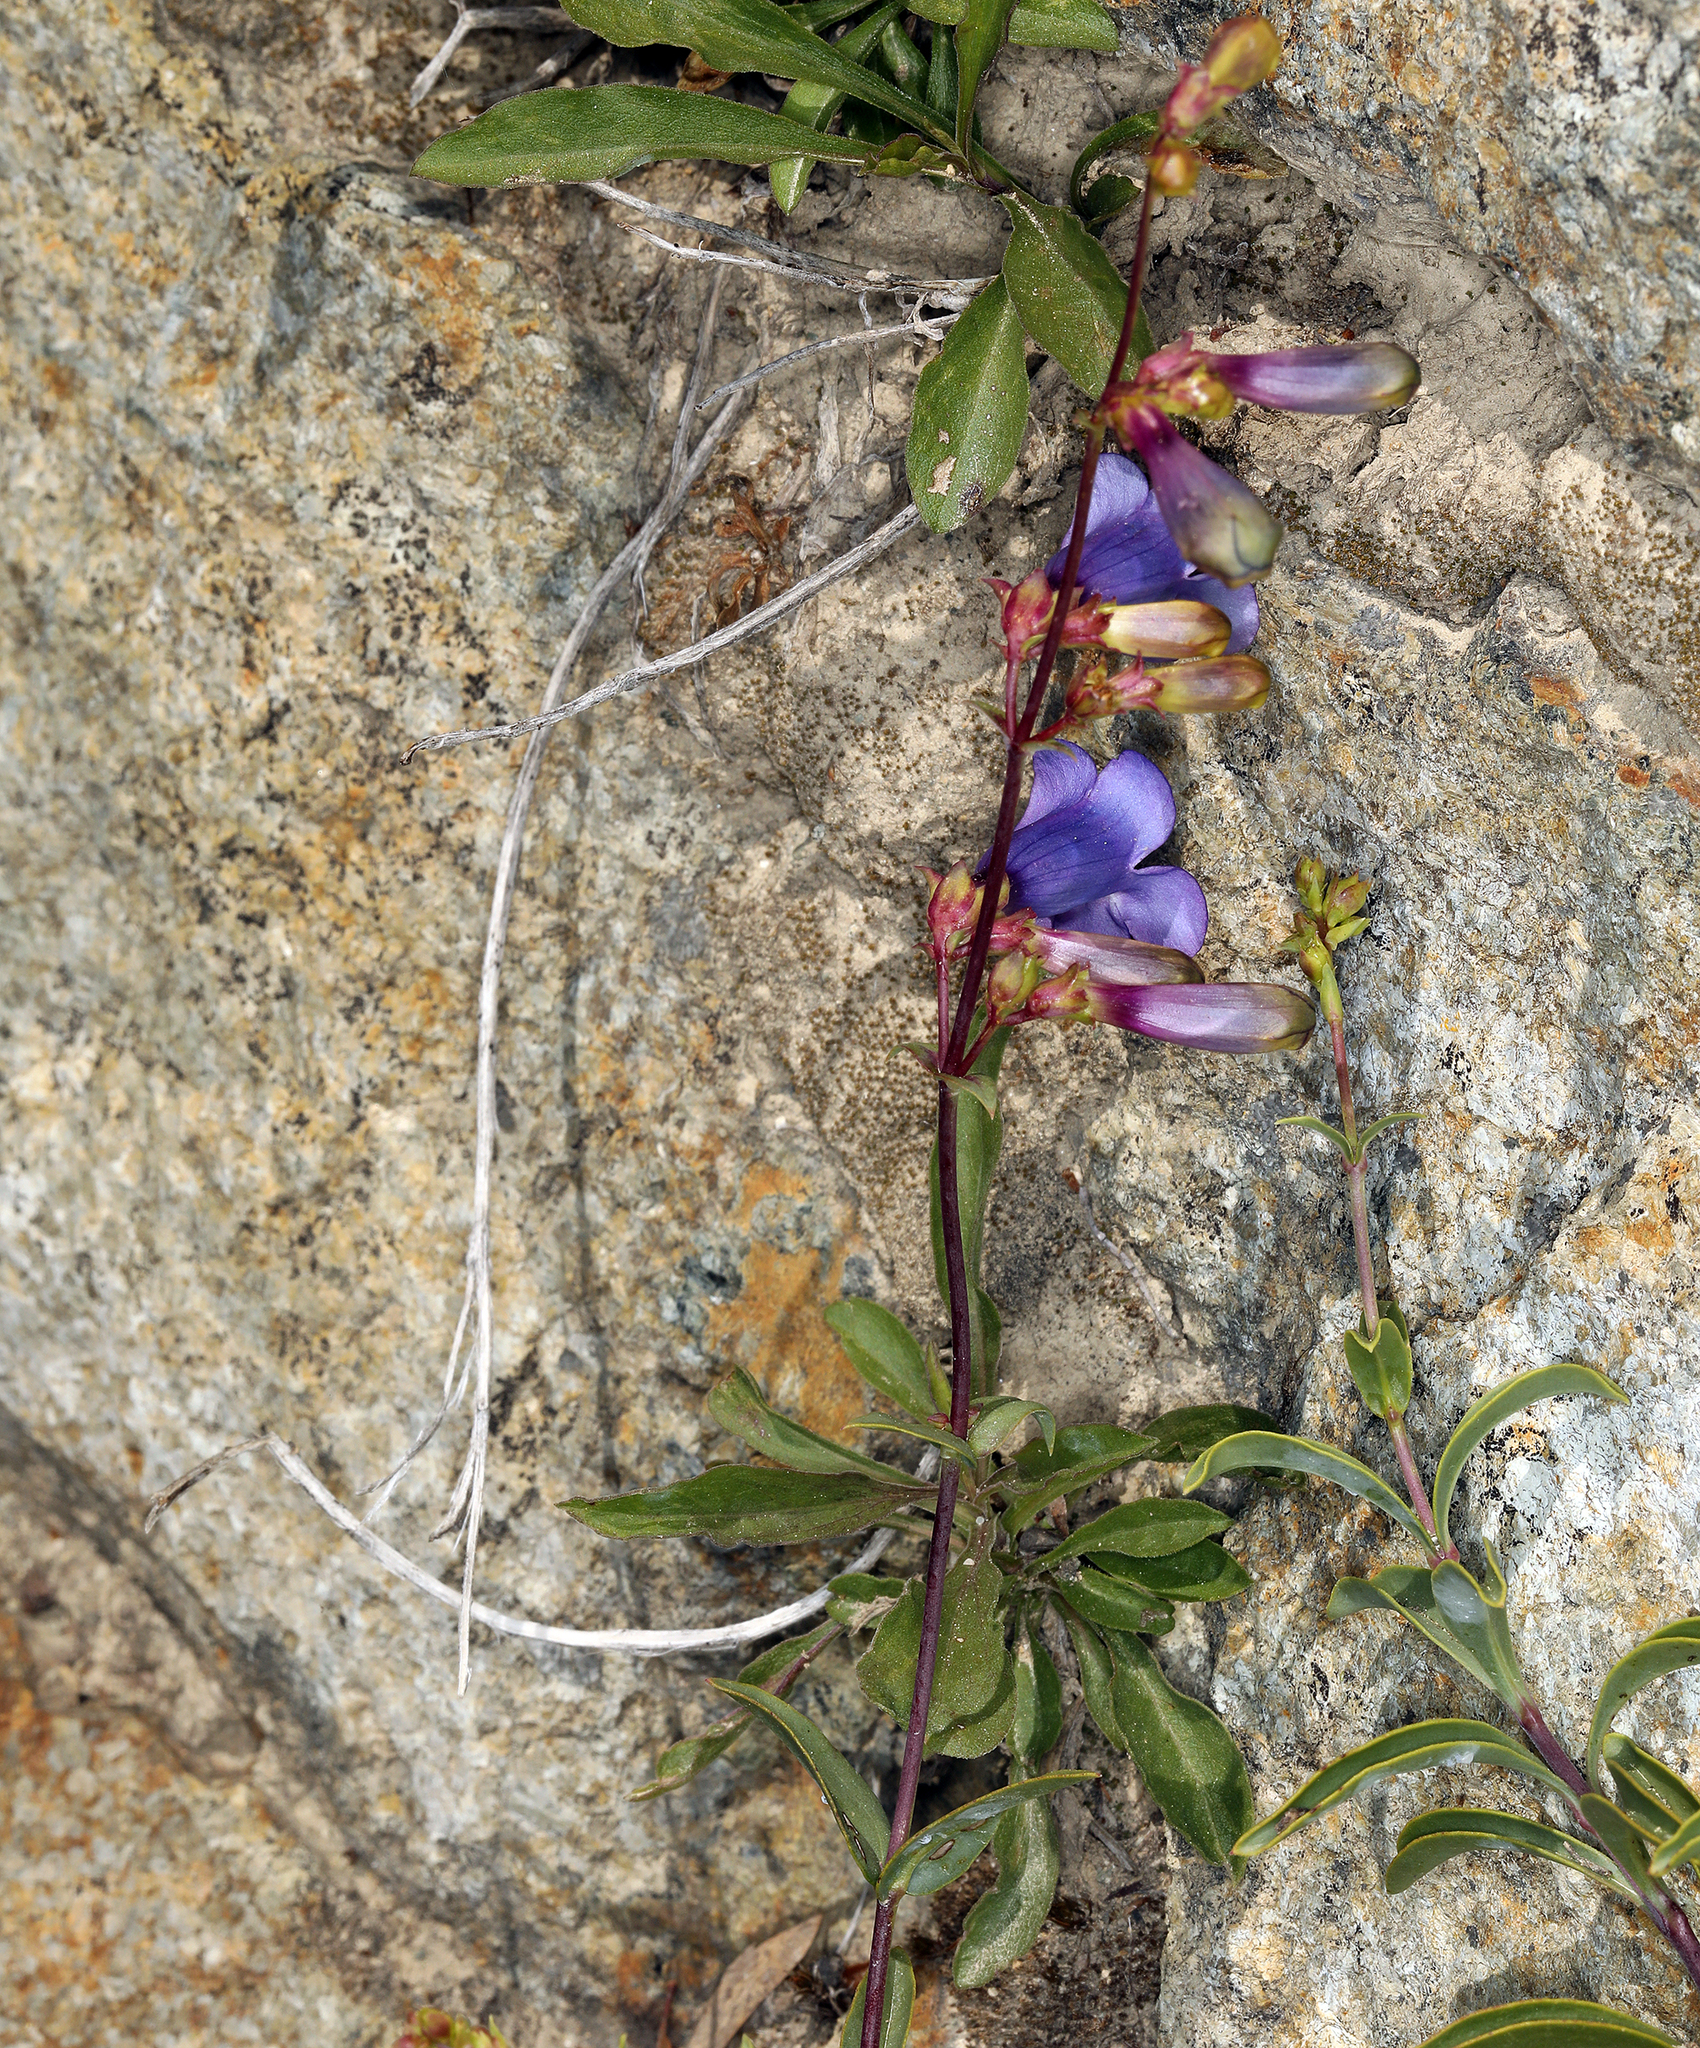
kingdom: Plantae
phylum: Tracheophyta
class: Magnoliopsida
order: Lamiales
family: Plantaginaceae
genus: Penstemon
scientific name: Penstemon parvulus
